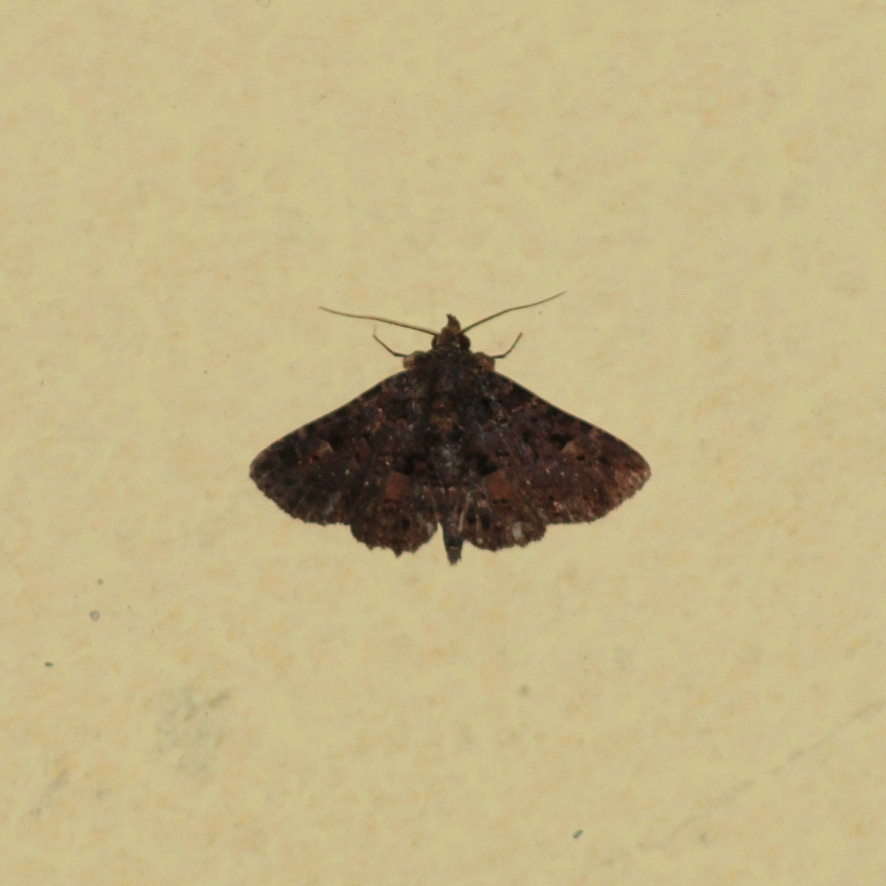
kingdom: Animalia
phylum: Arthropoda
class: Insecta
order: Lepidoptera
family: Erebidae
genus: Metalectra
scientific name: Metalectra praecisalis
